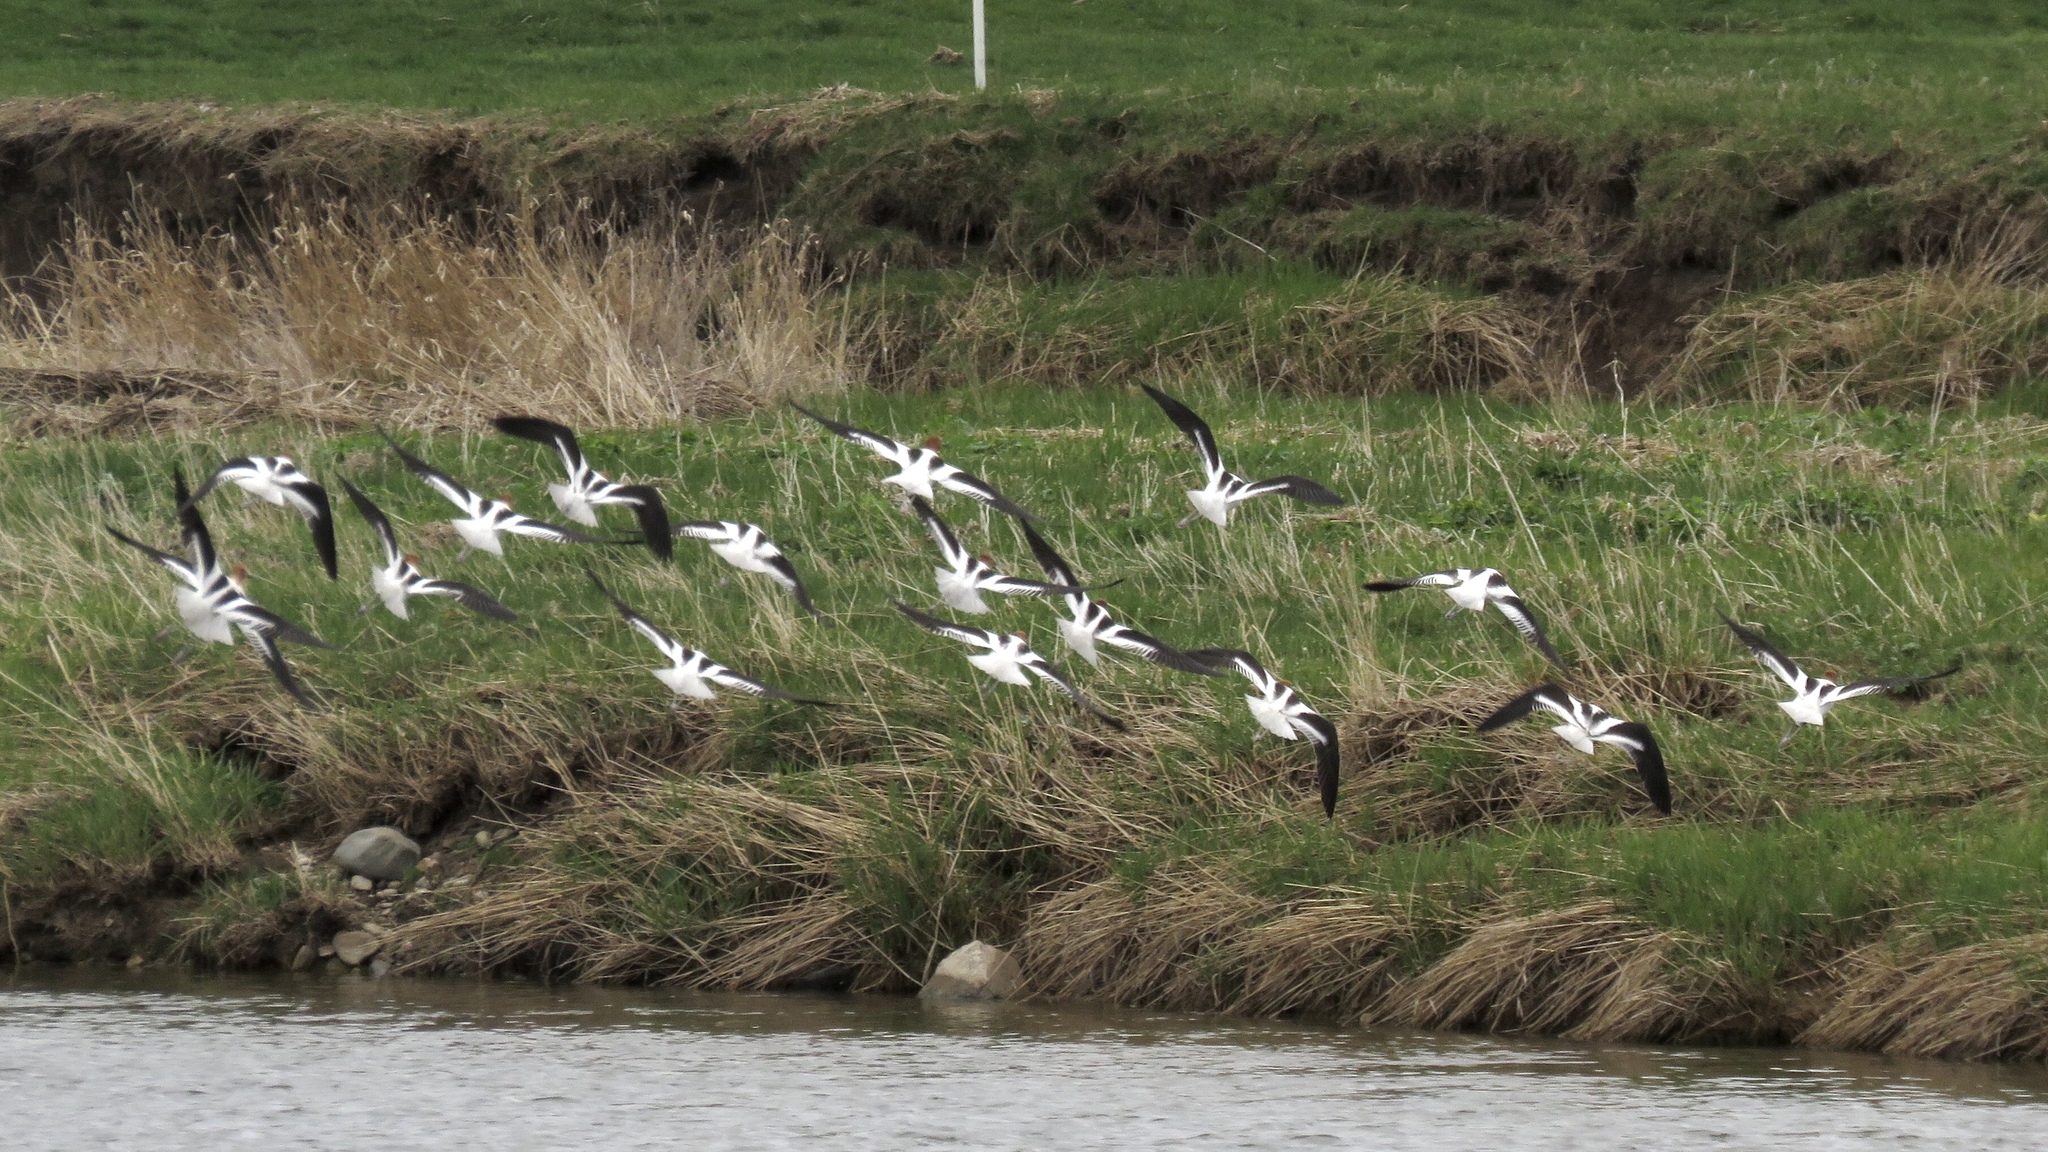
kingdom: Animalia
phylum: Chordata
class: Aves
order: Charadriiformes
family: Recurvirostridae
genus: Recurvirostra
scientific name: Recurvirostra americana
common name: American avocet
